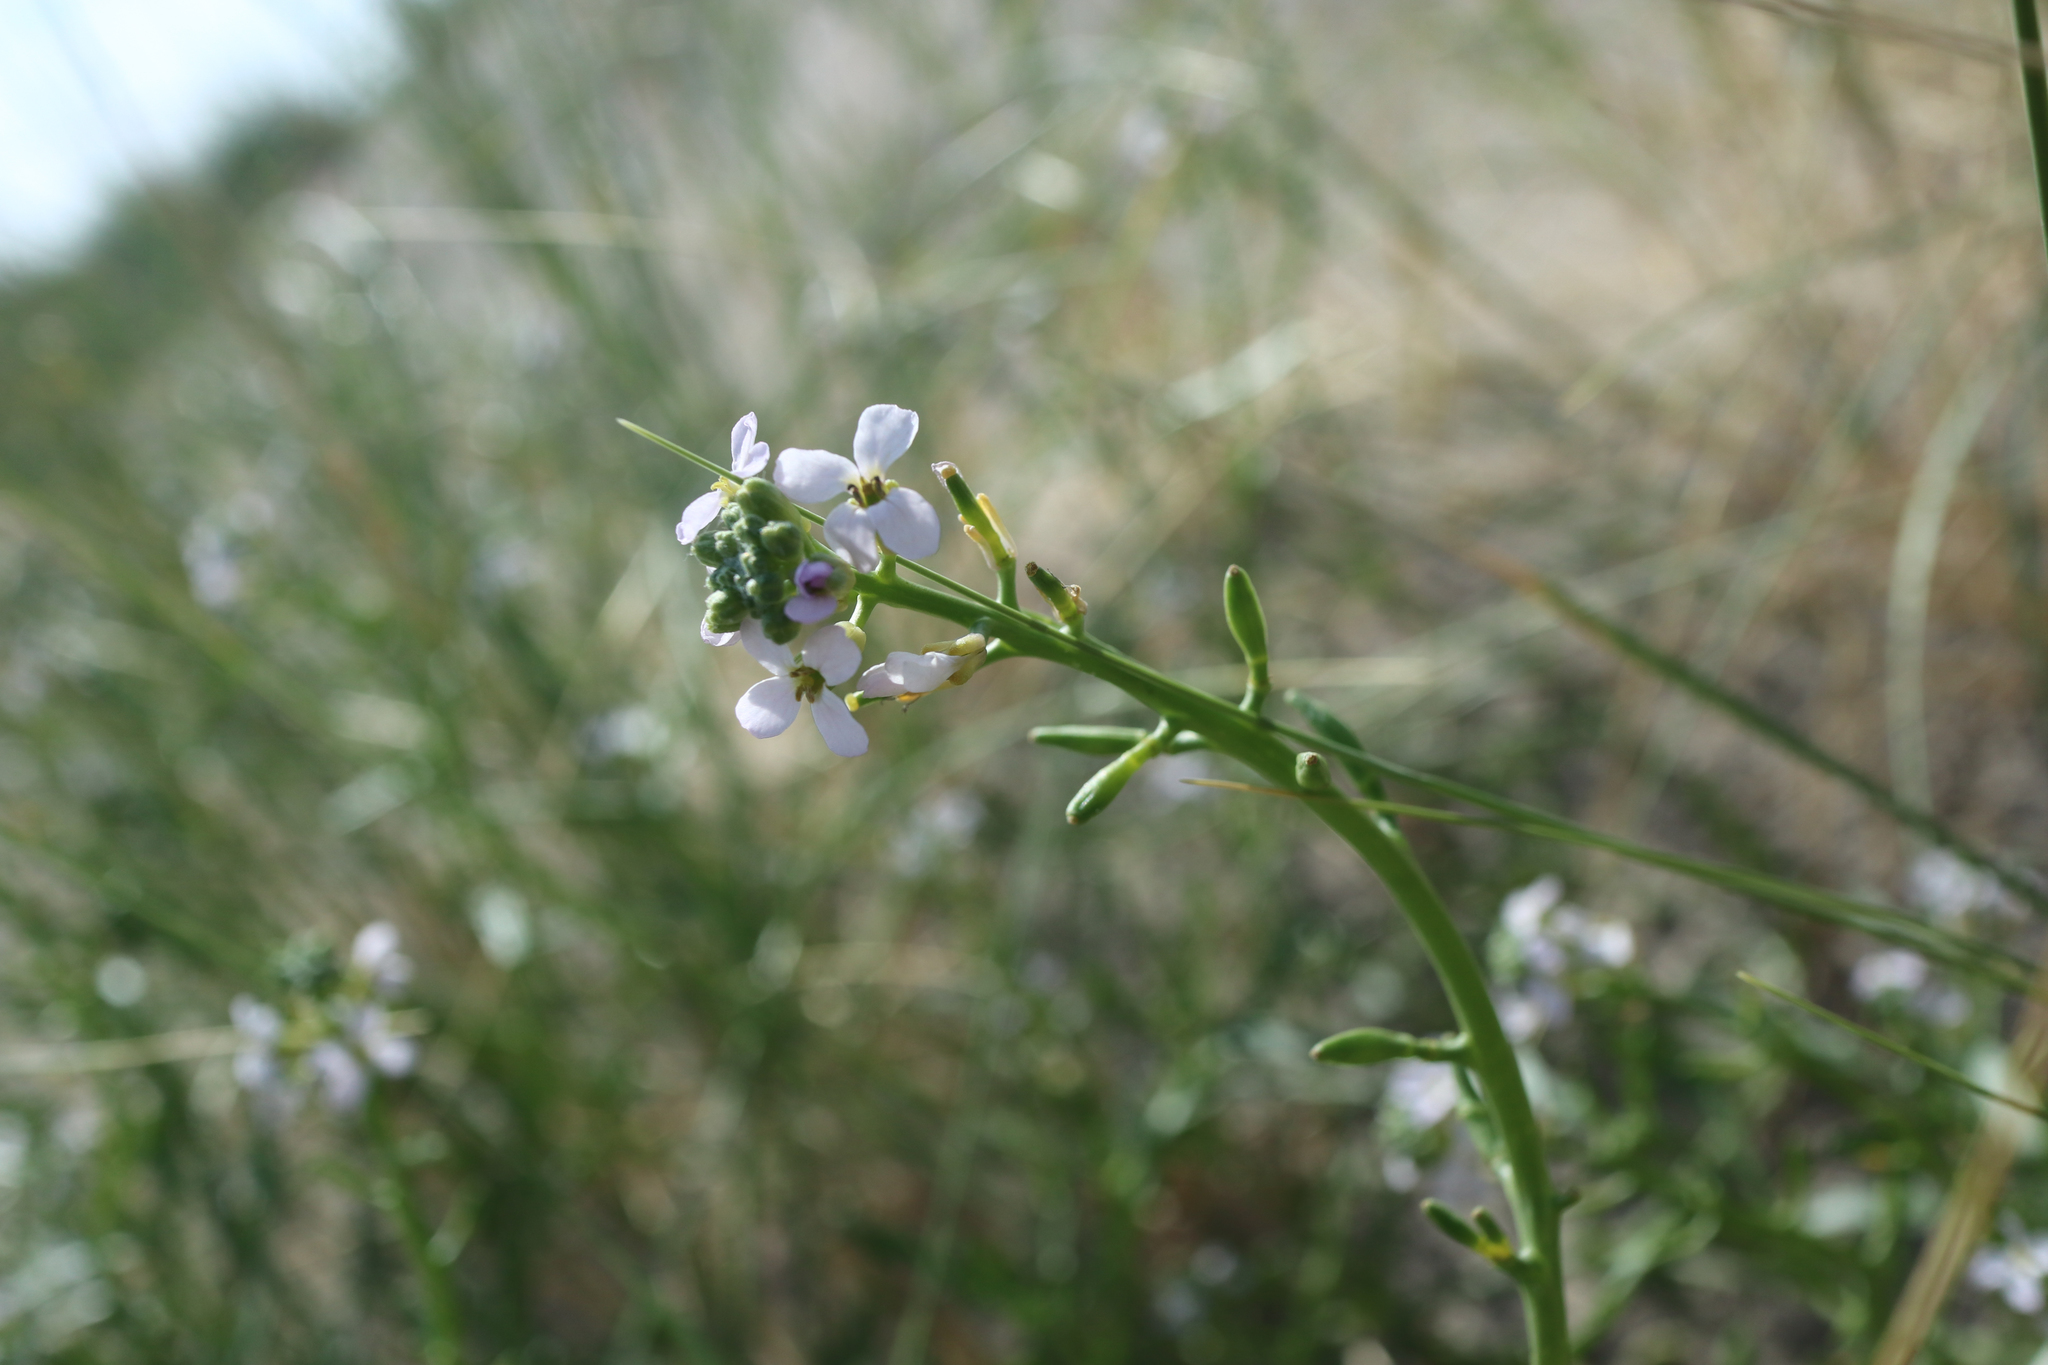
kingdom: Plantae
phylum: Tracheophyta
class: Magnoliopsida
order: Brassicales
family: Brassicaceae
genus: Cakile
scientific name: Cakile maritima
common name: Sea rocket
